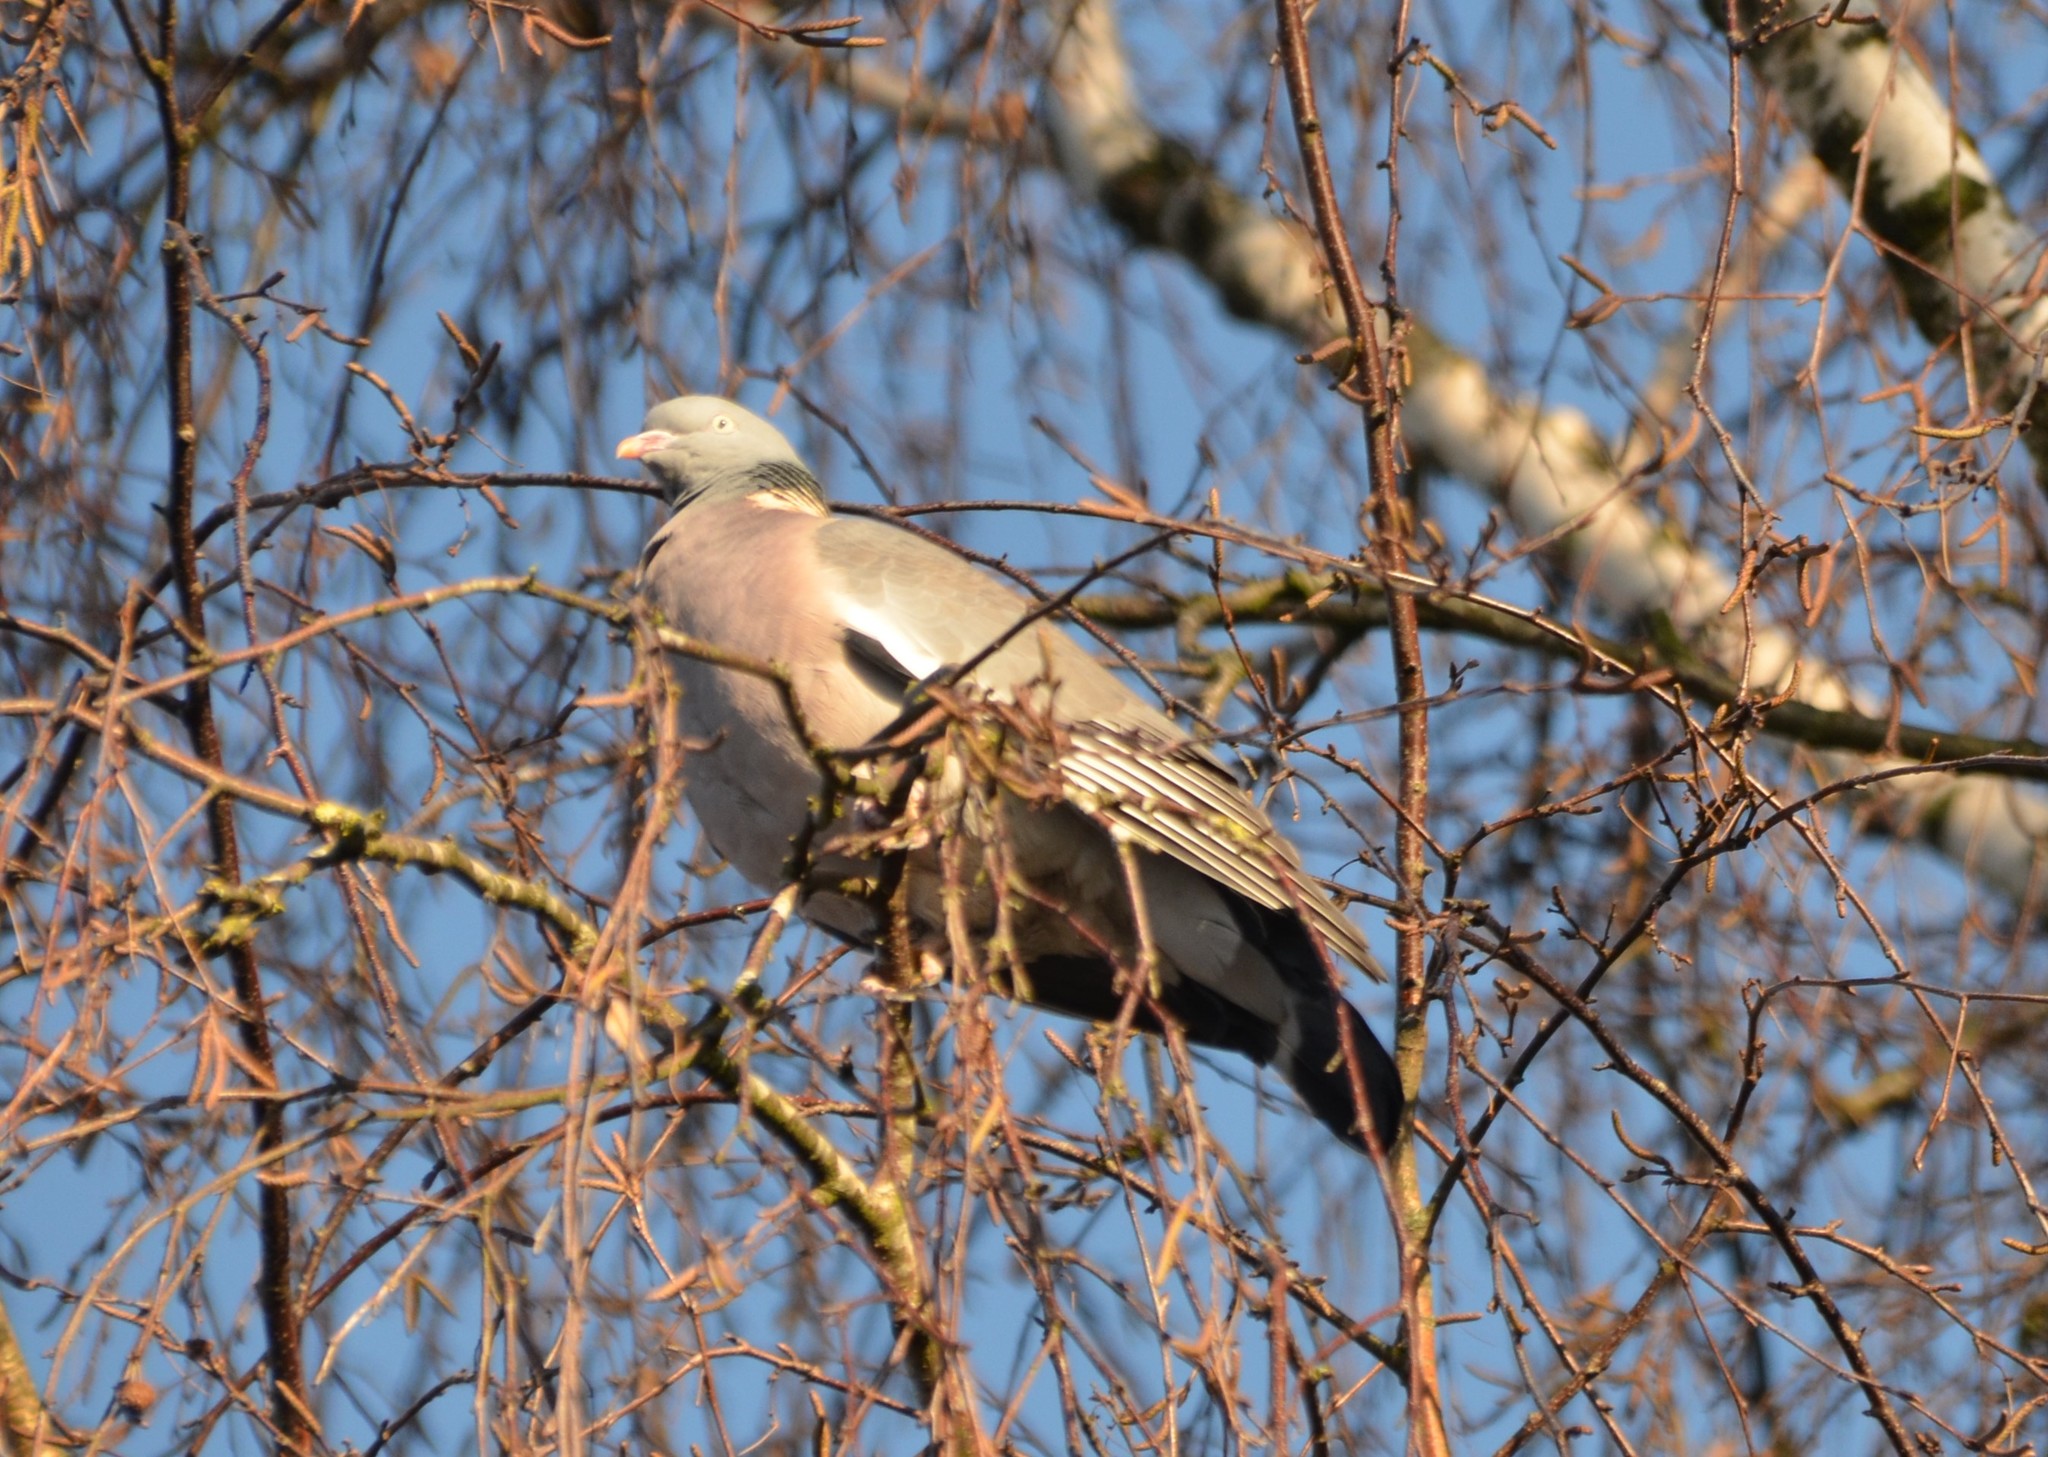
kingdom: Animalia
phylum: Chordata
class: Aves
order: Columbiformes
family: Columbidae
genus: Columba
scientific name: Columba palumbus
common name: Common wood pigeon
